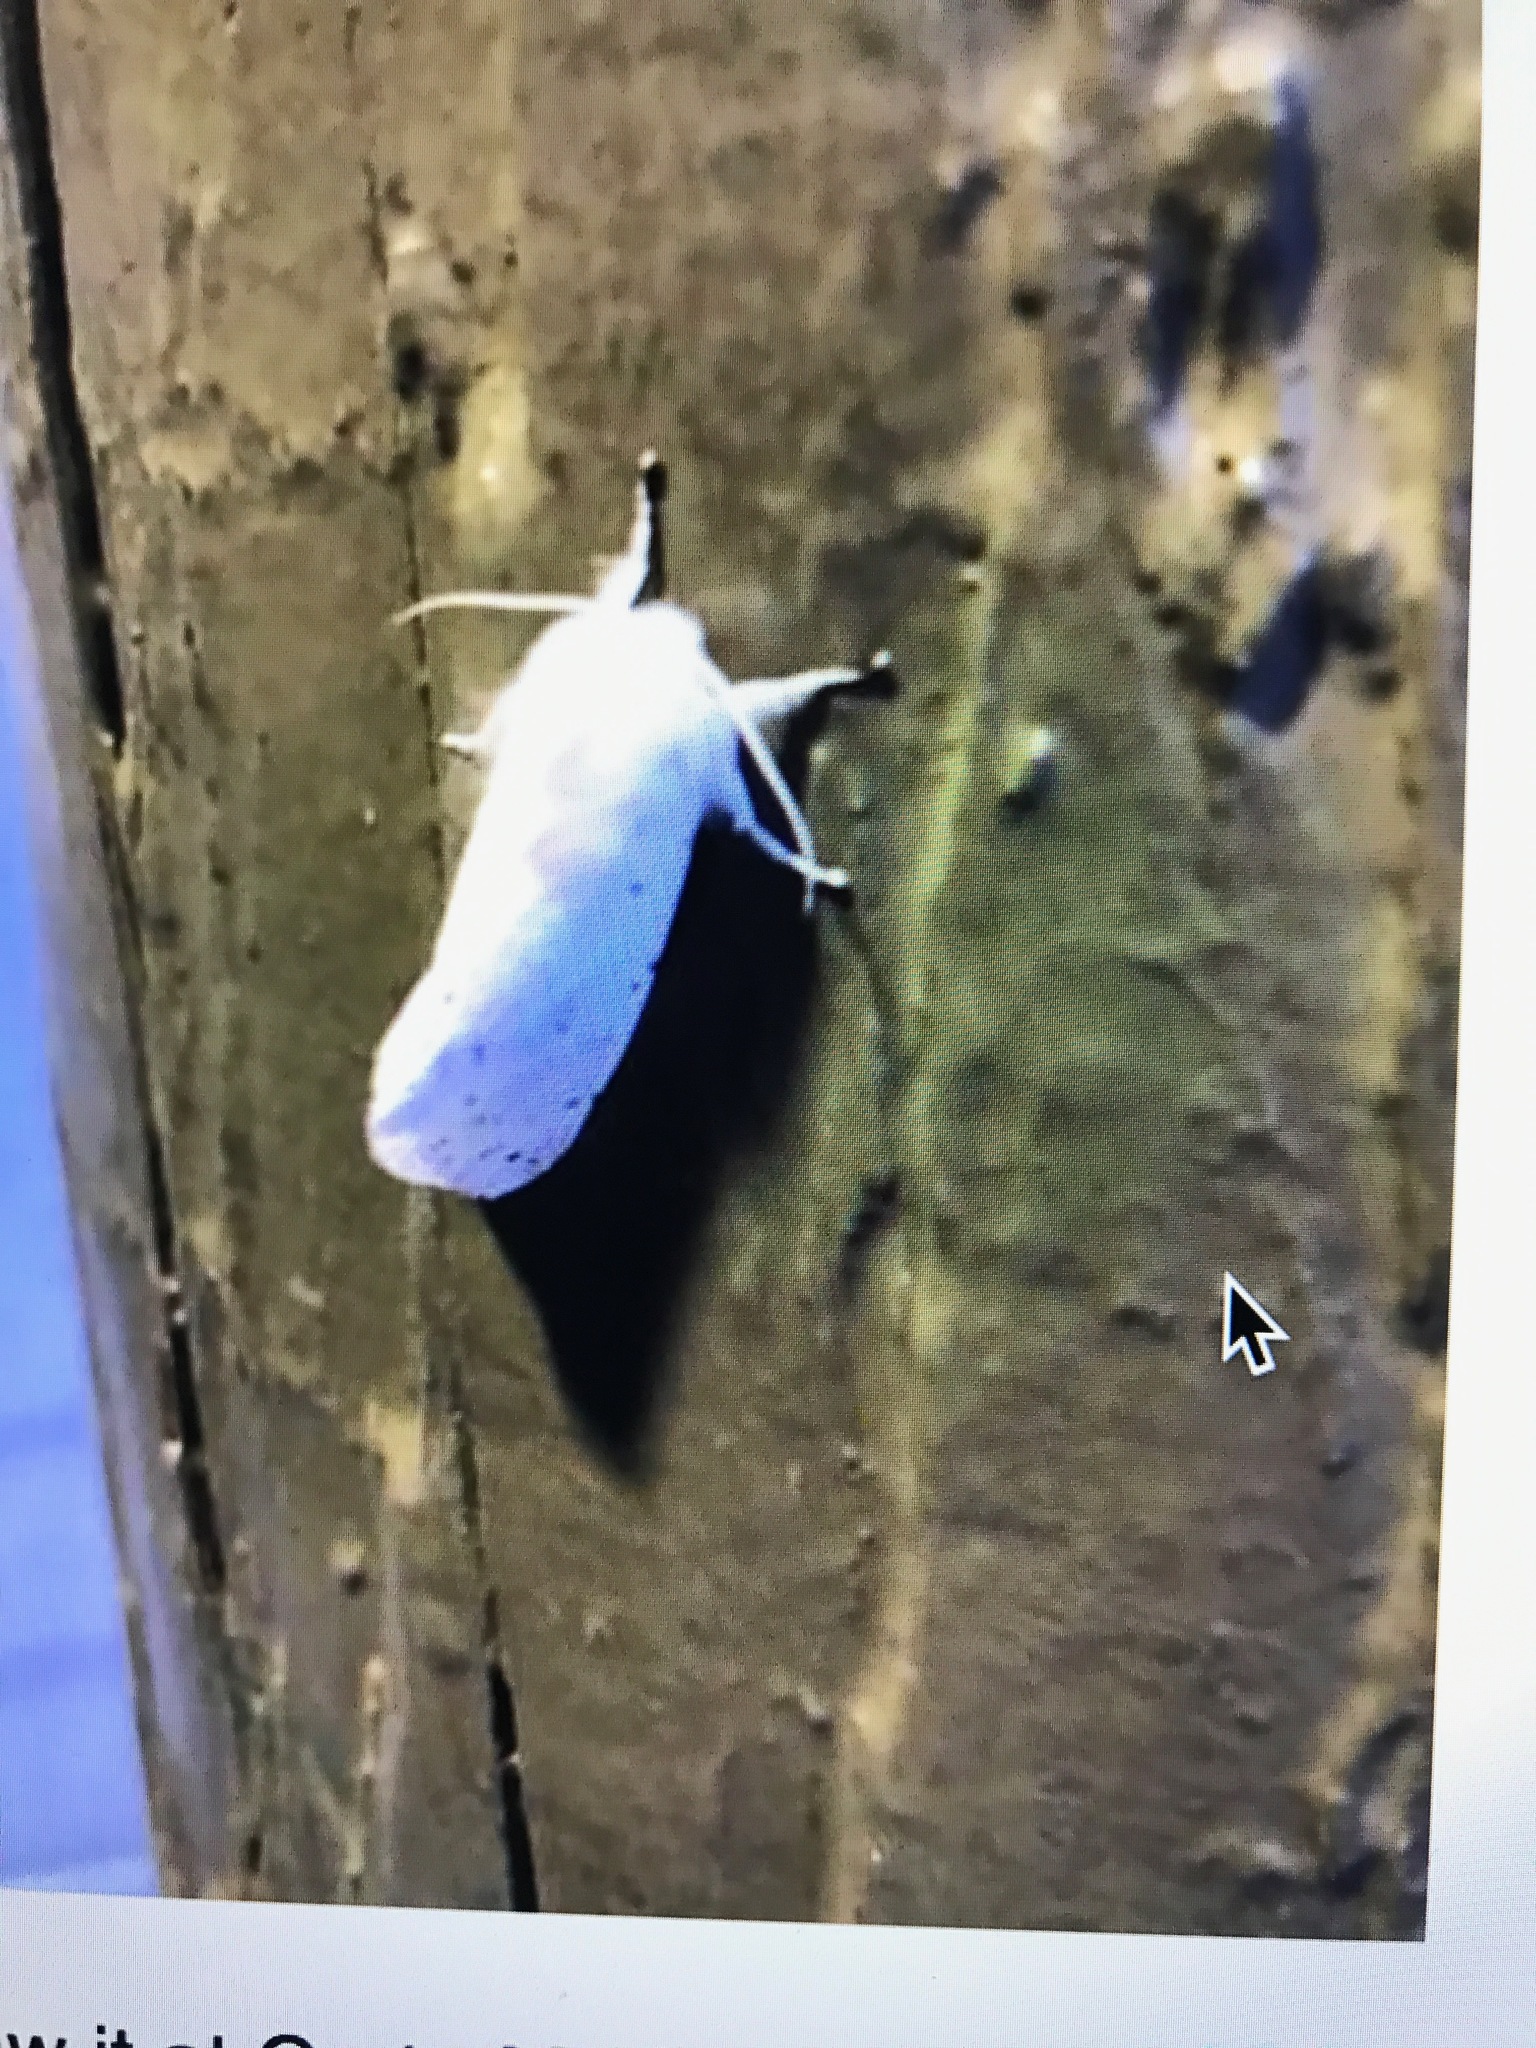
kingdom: Animalia
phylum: Arthropoda
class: Insecta
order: Lepidoptera
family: Erebidae
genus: Spilosoma
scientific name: Spilosoma vestalis
